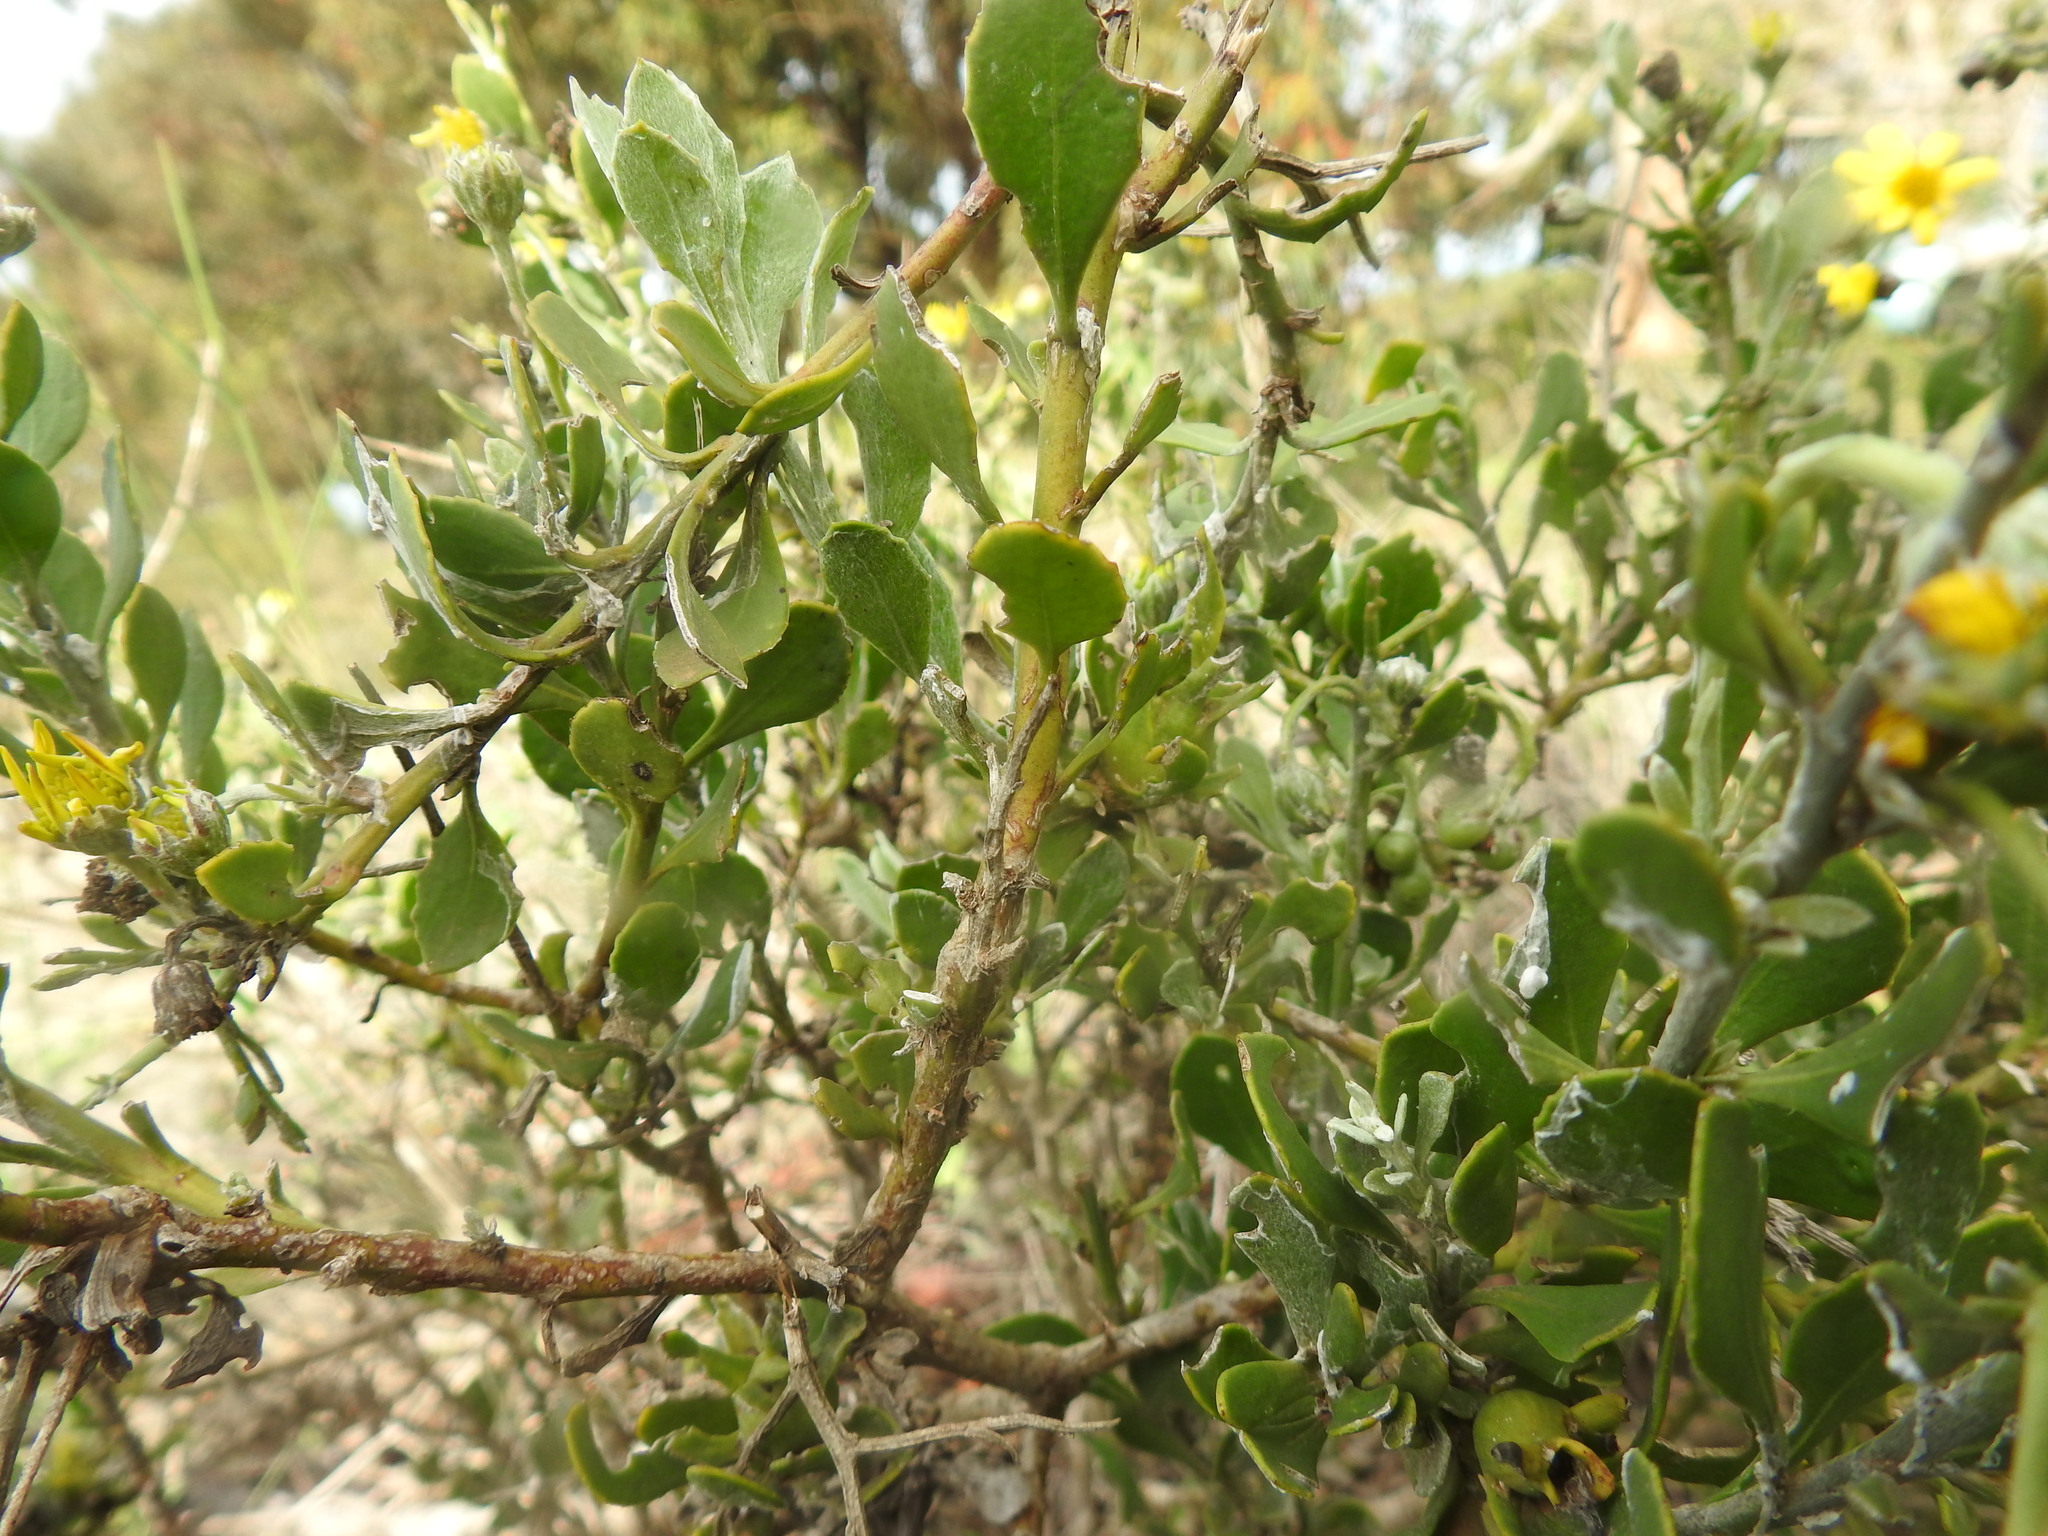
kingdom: Plantae
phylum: Tracheophyta
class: Magnoliopsida
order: Asterales
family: Asteraceae
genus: Osteospermum
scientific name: Osteospermum incanum
